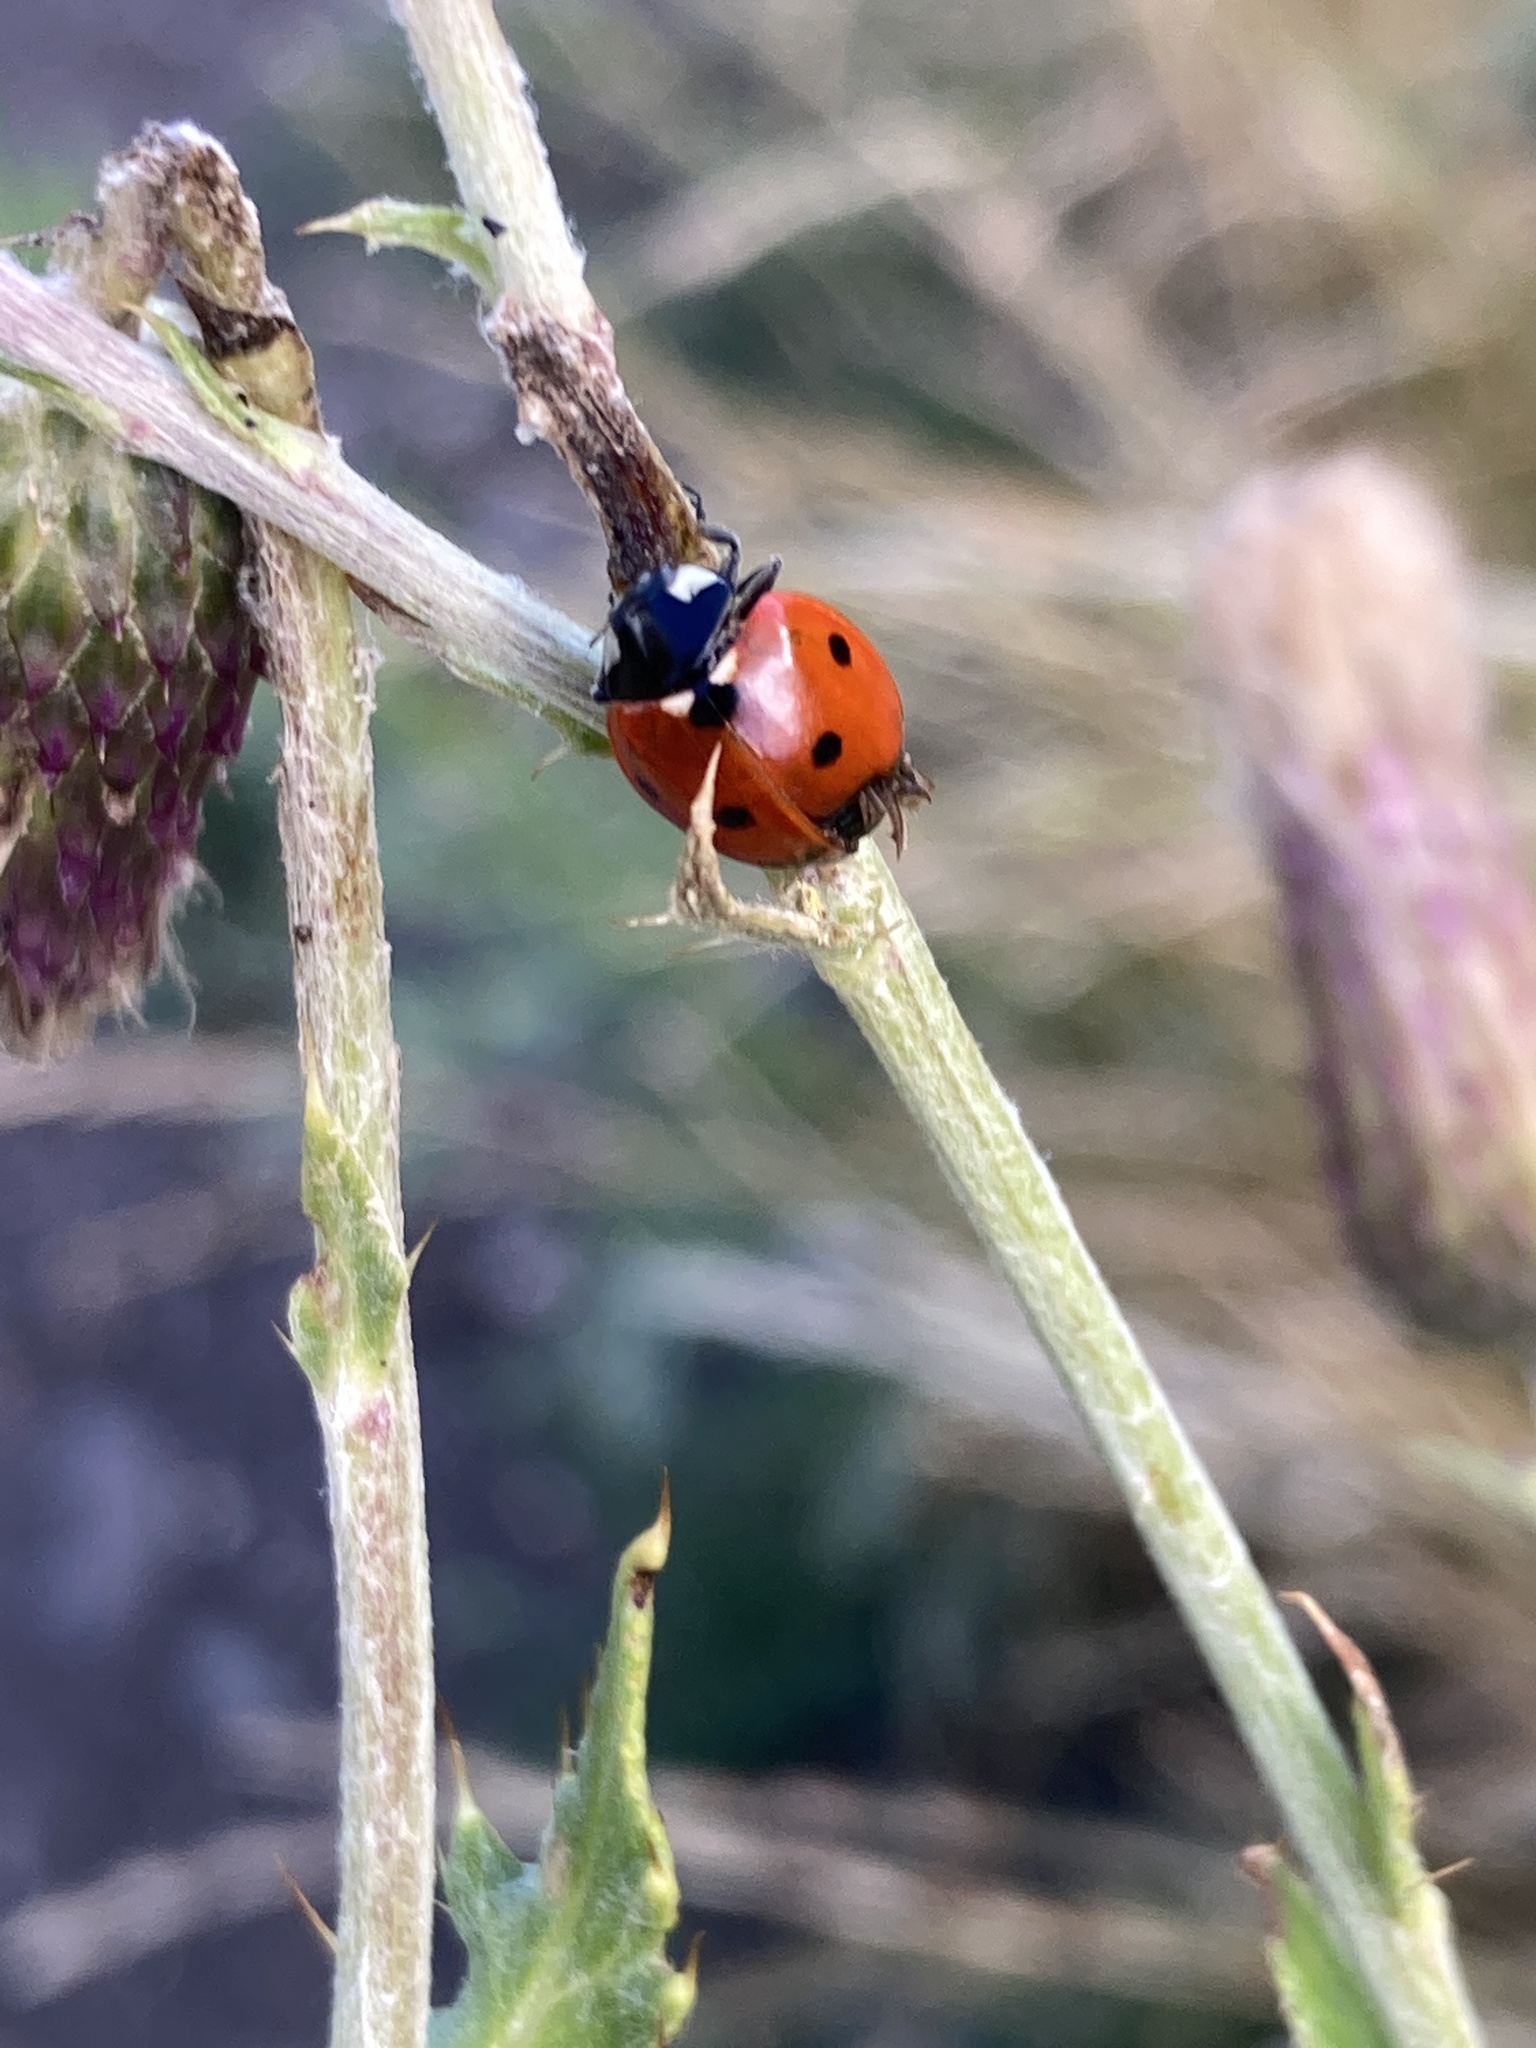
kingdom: Animalia
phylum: Arthropoda
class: Insecta
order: Coleoptera
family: Coccinellidae
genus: Coccinella
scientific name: Coccinella septempunctata
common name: Sevenspotted lady beetle
